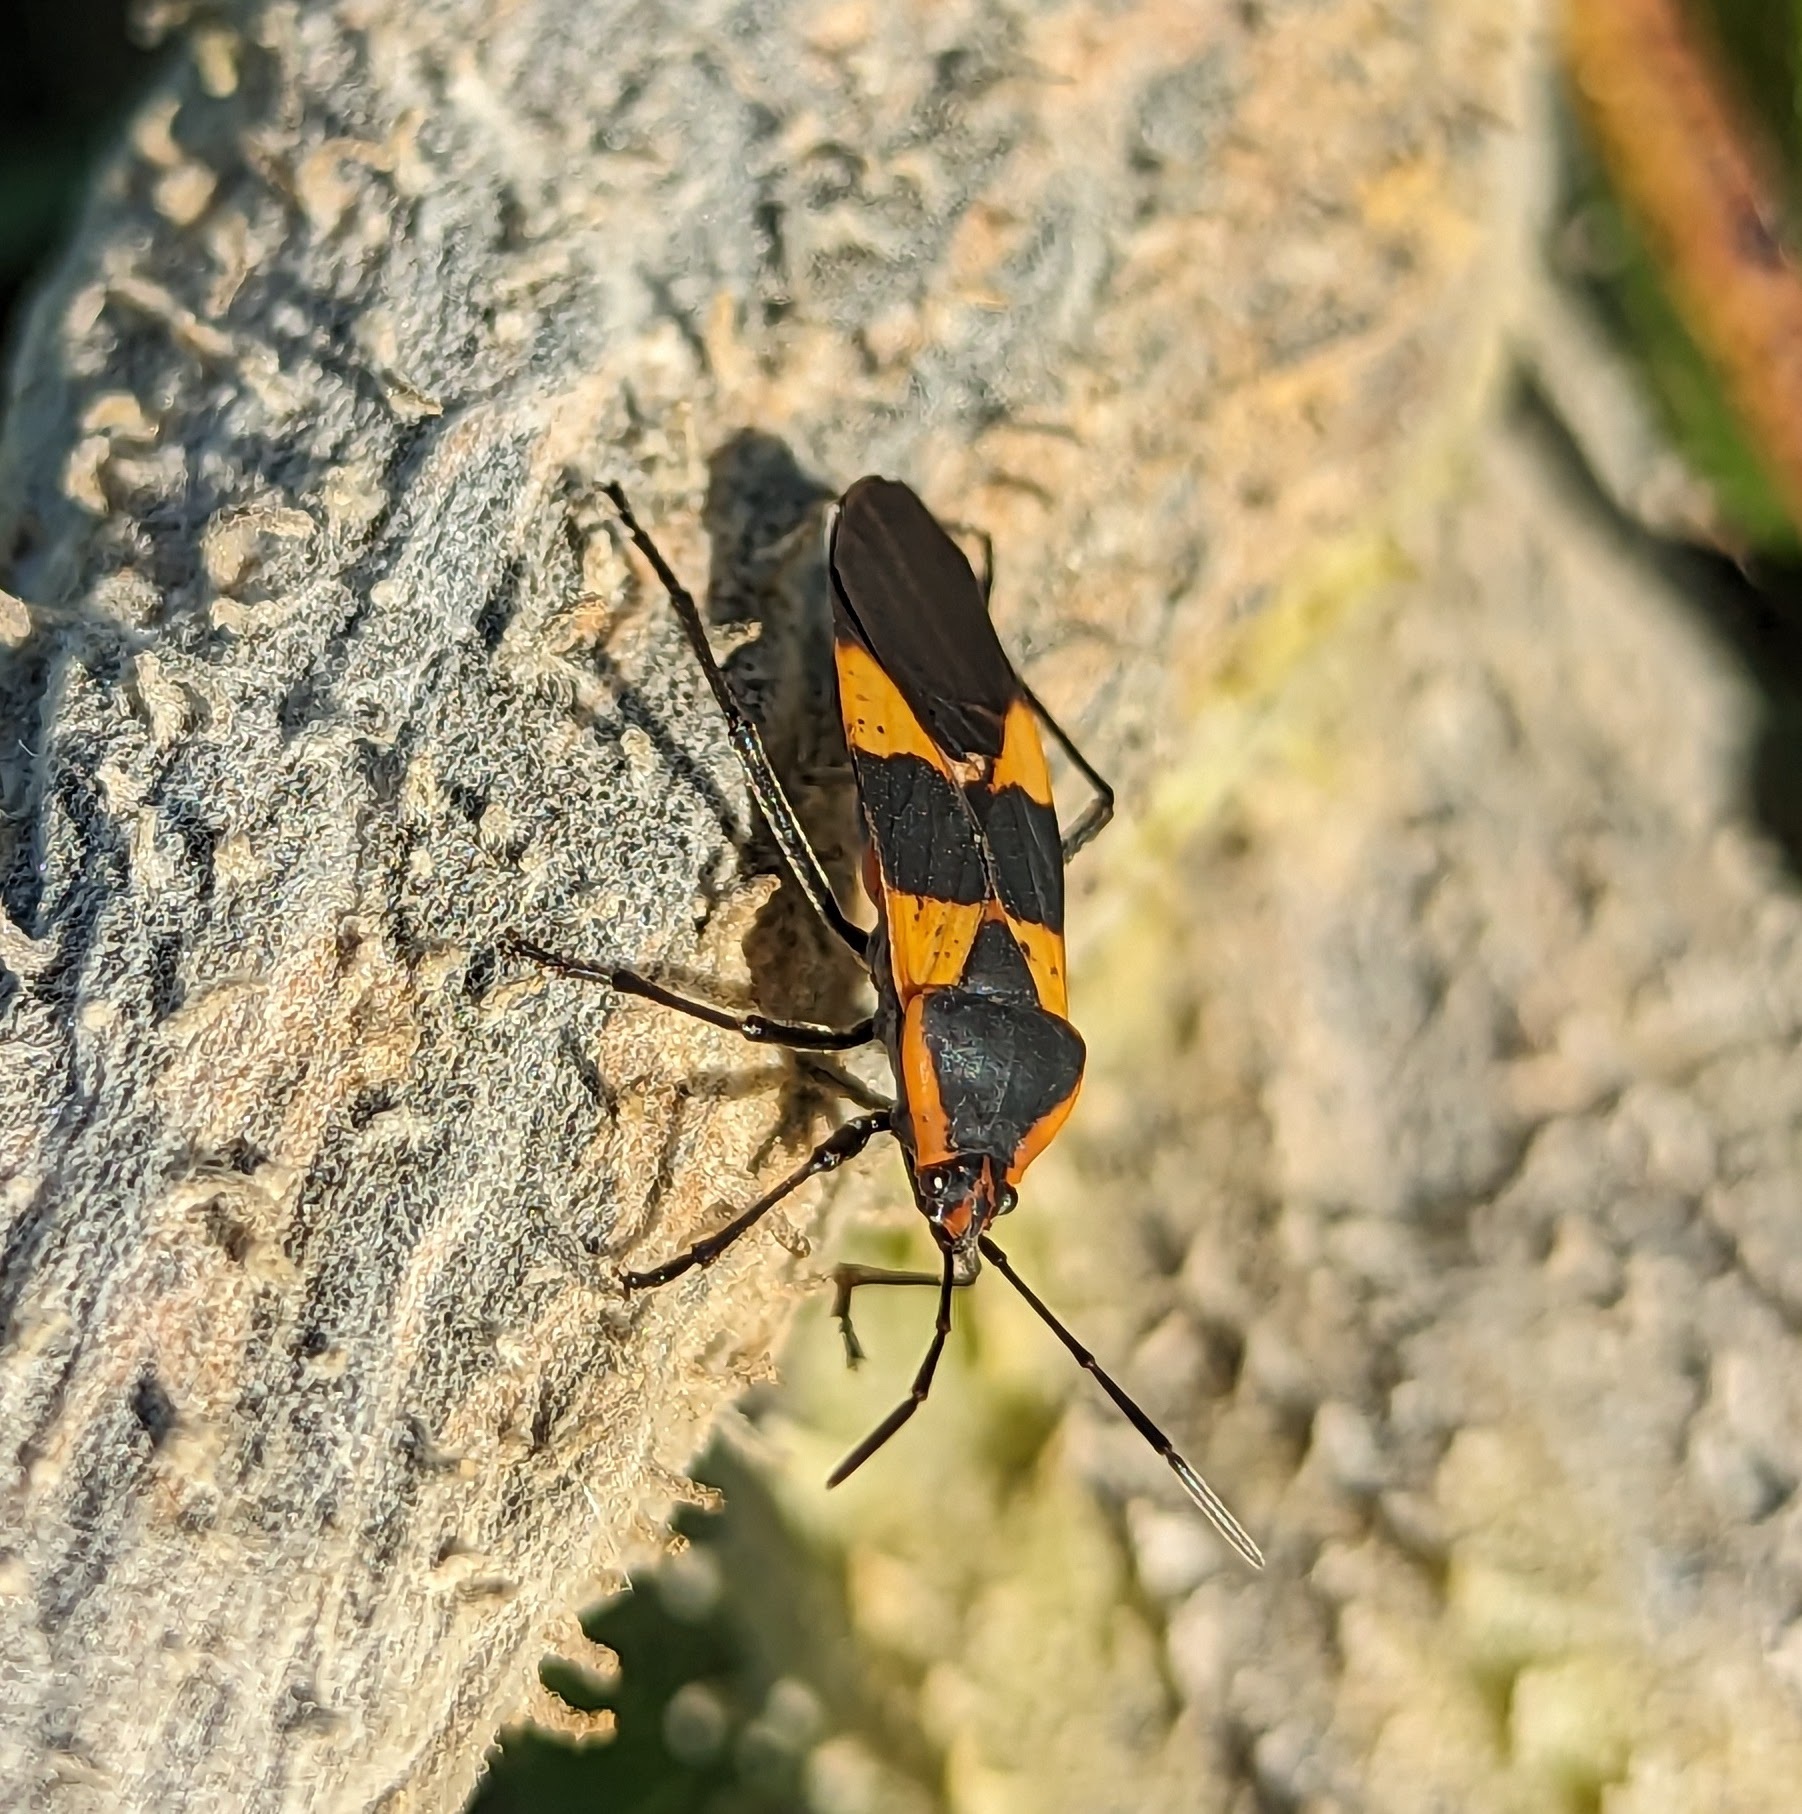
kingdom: Animalia
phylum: Arthropoda
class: Insecta
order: Hemiptera
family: Lygaeidae
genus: Oncopeltus
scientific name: Oncopeltus fasciatus
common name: Large milkweed bug
